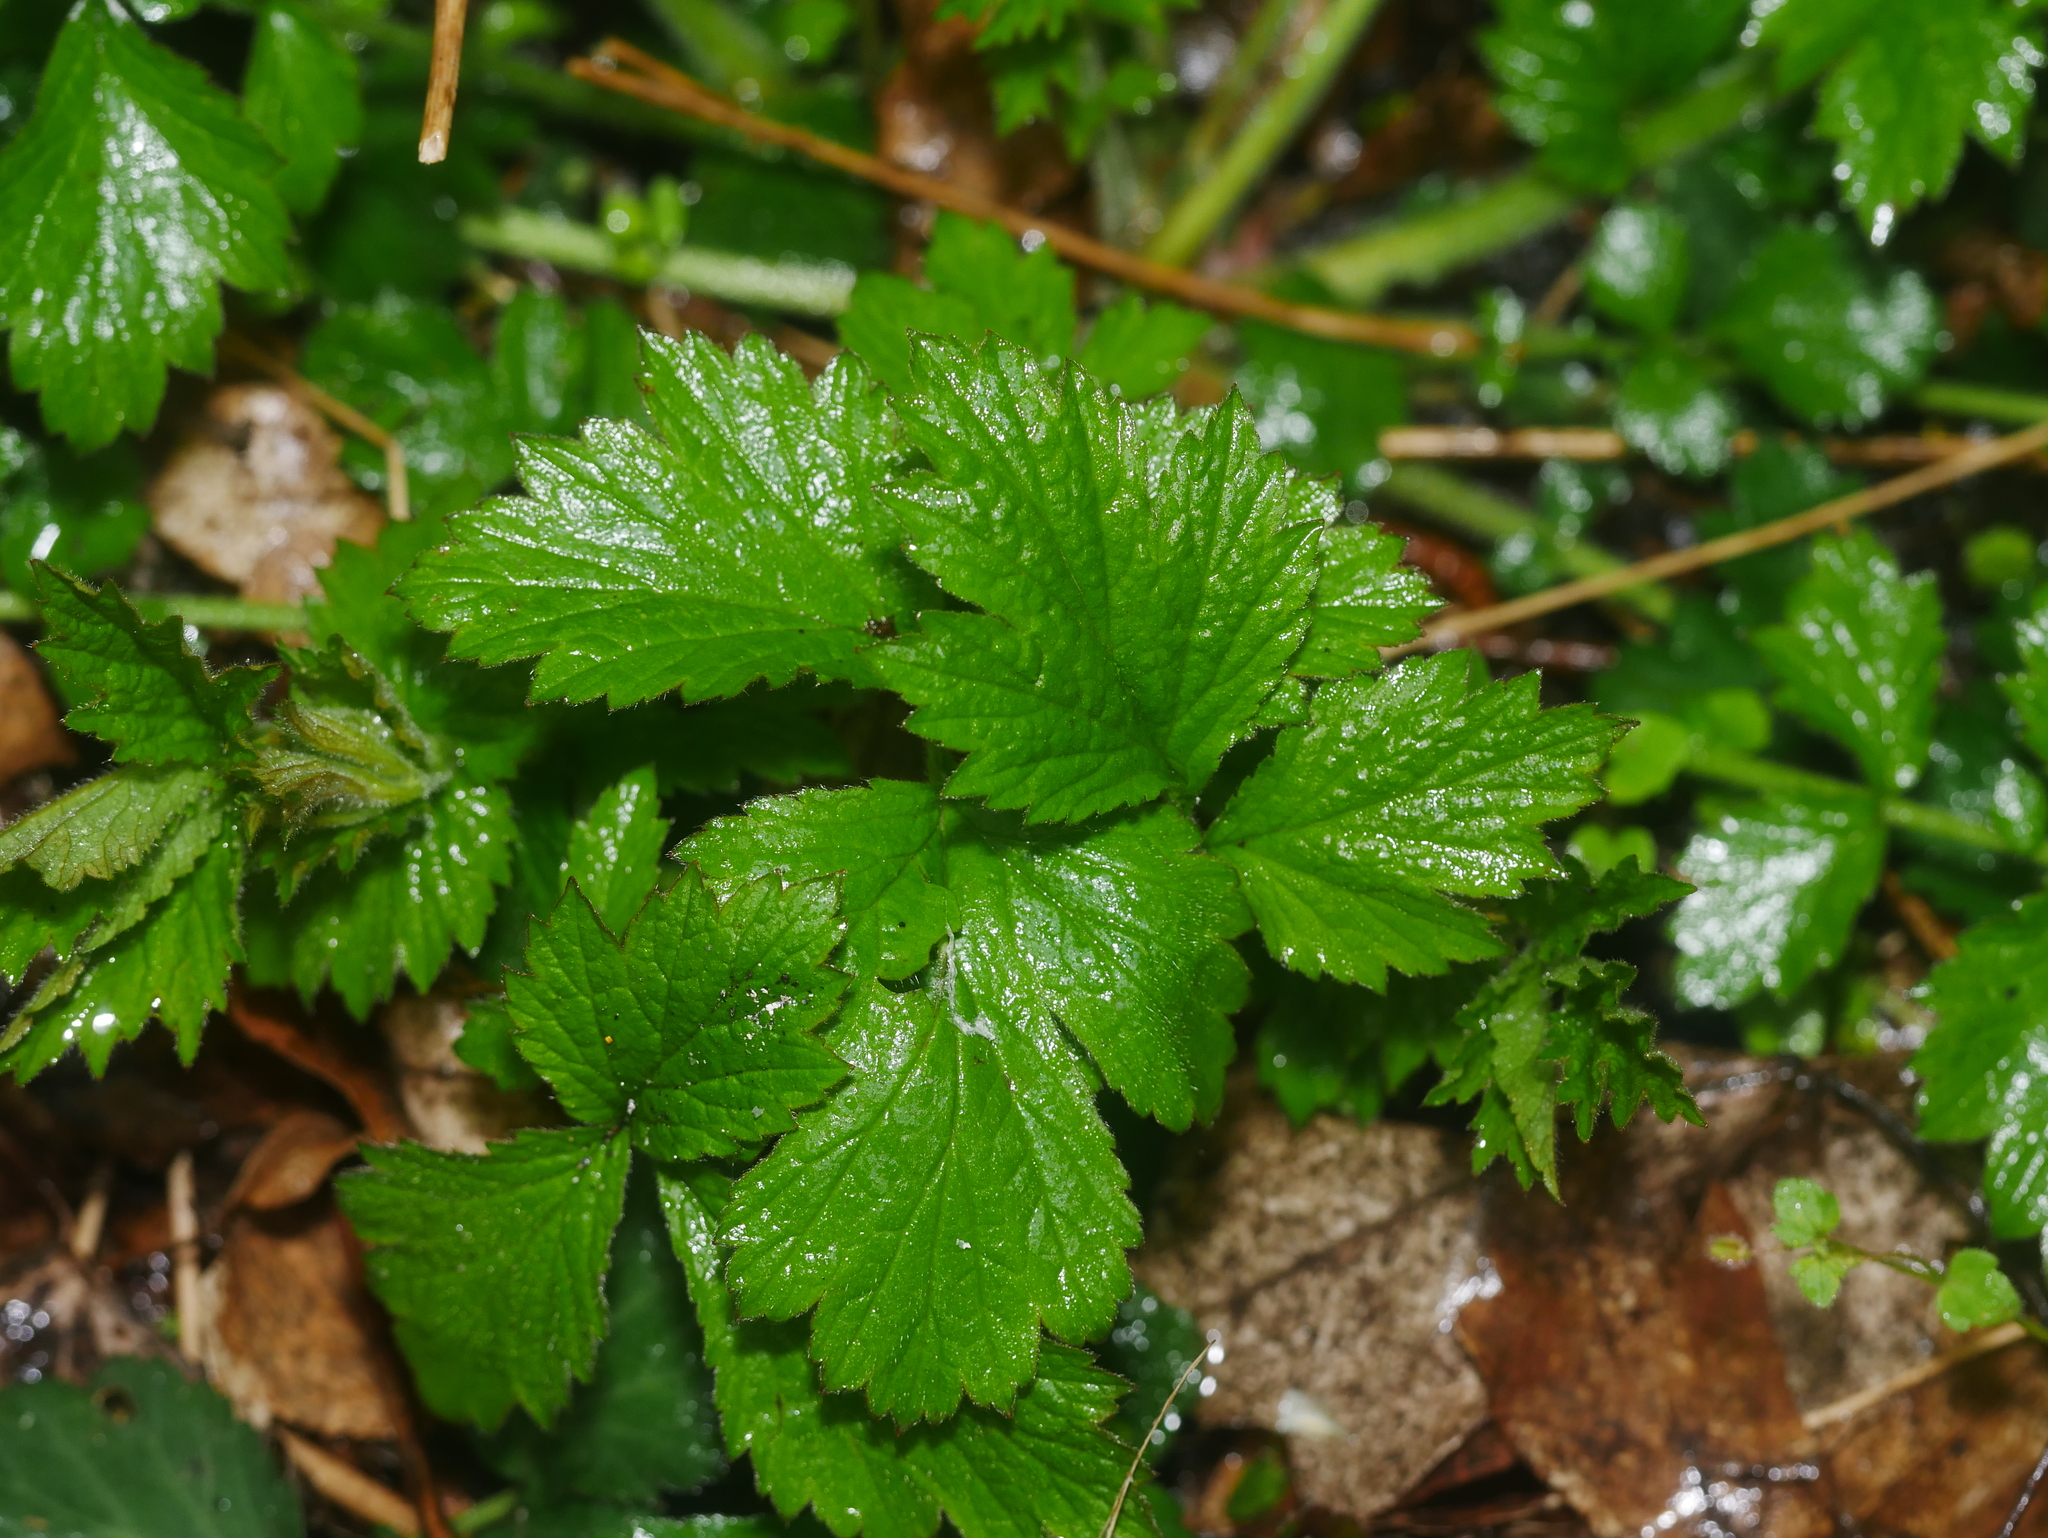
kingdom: Plantae
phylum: Tracheophyta
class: Magnoliopsida
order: Rosales
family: Rosaceae
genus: Geum
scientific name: Geum urbanum
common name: Wood avens
